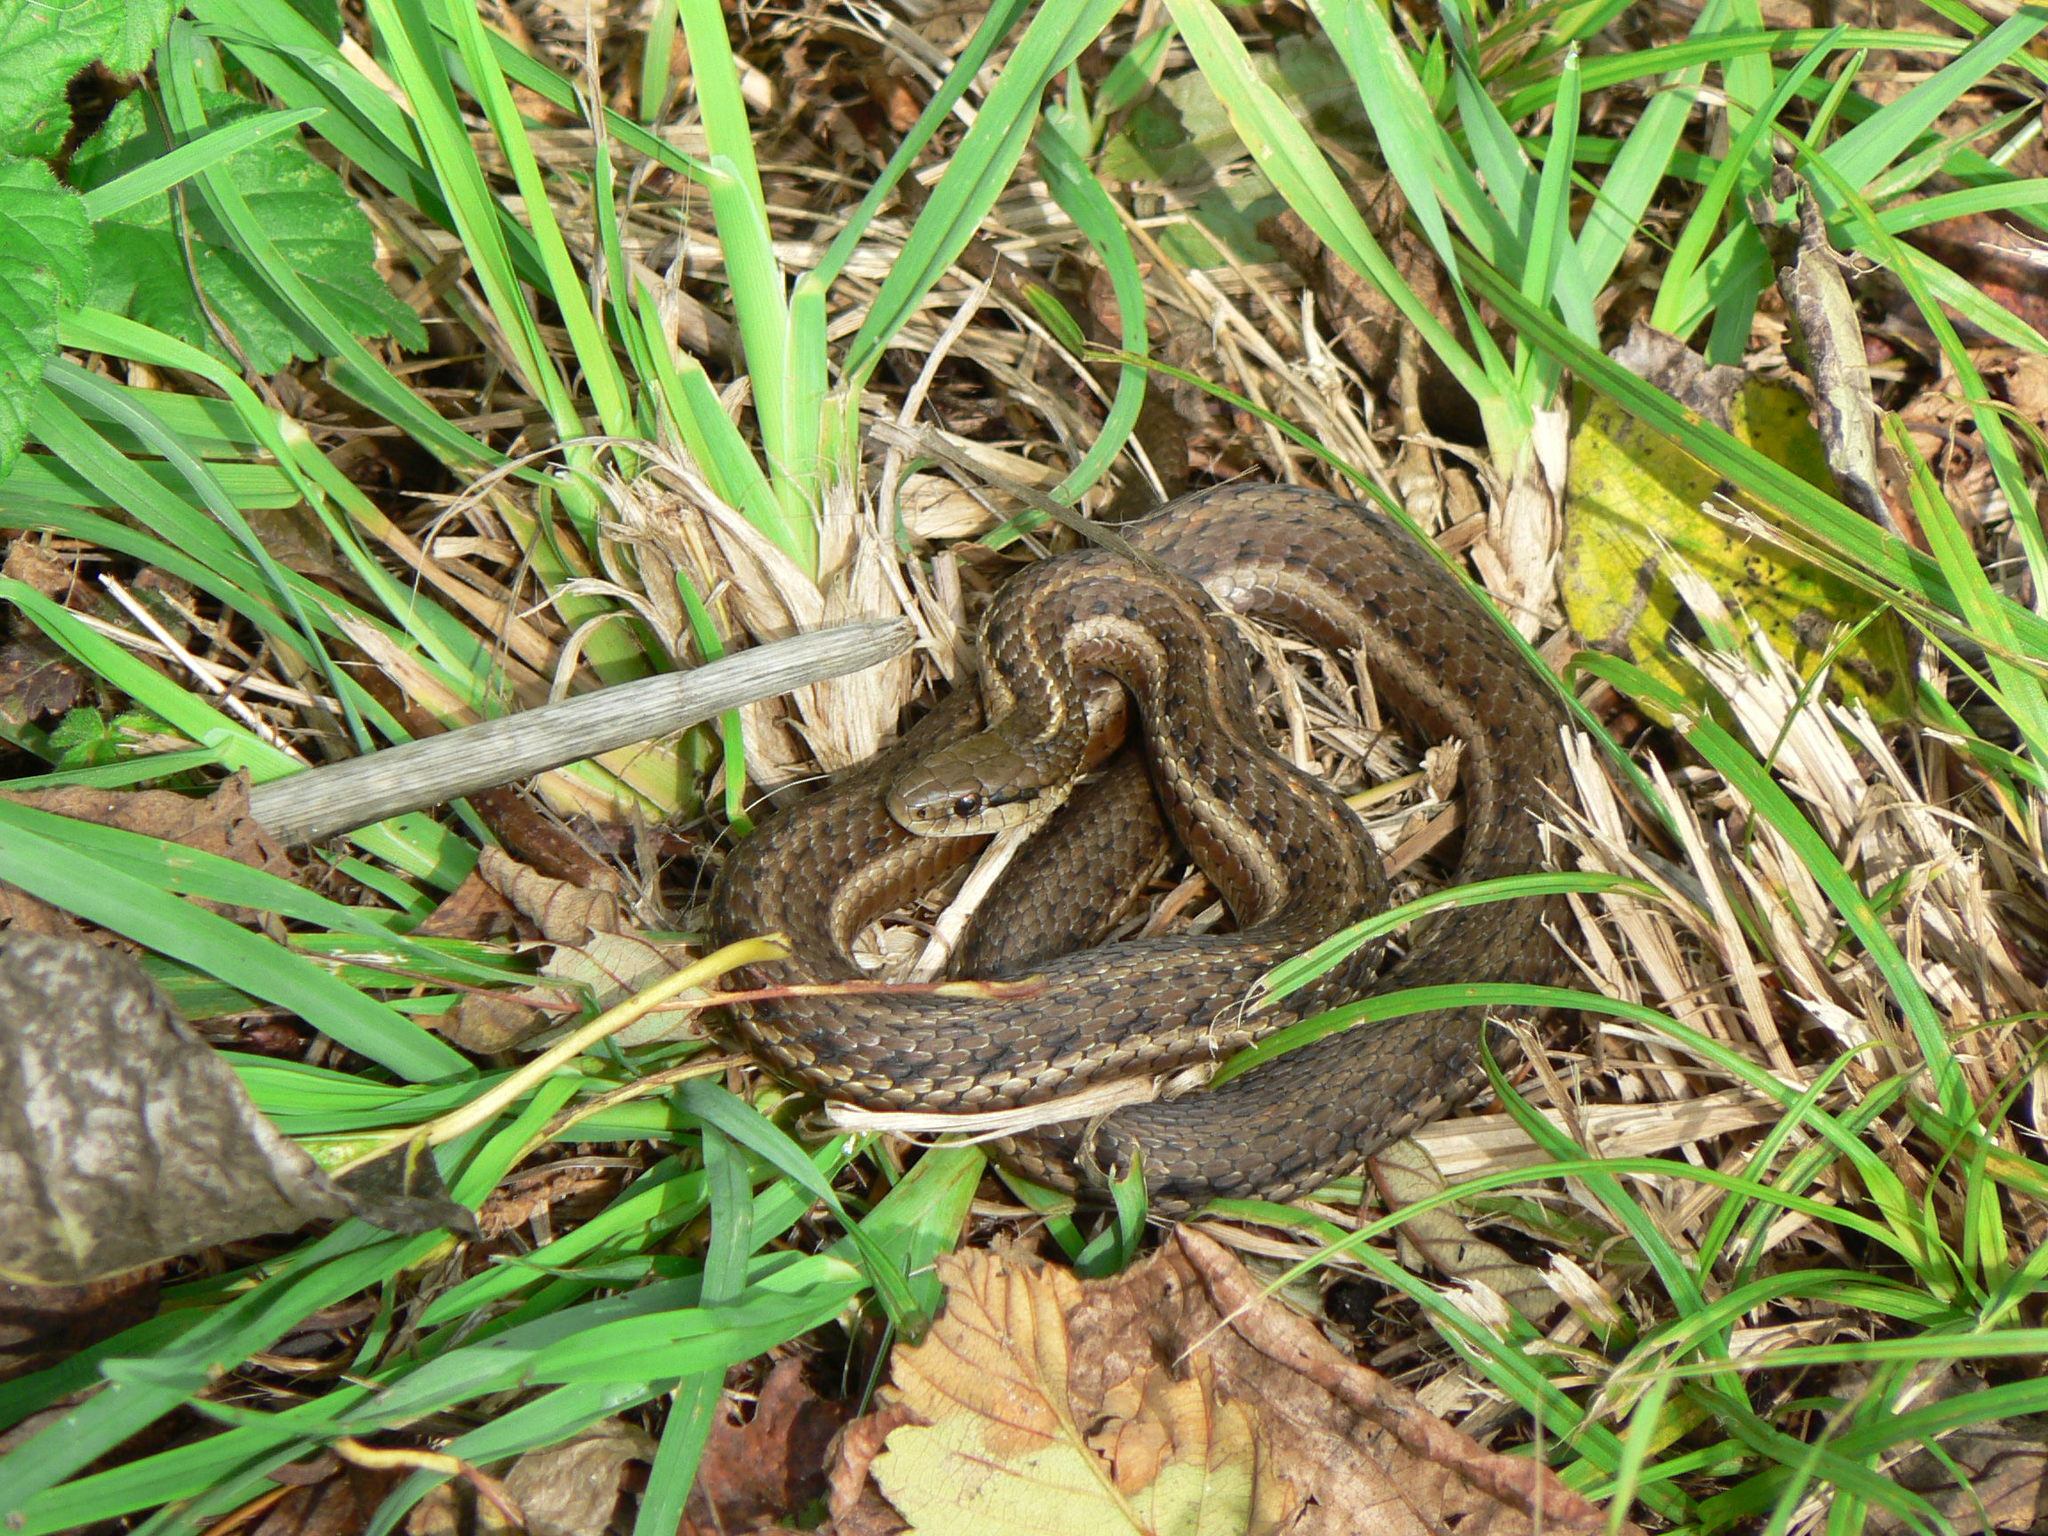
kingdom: Animalia
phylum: Chordata
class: Squamata
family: Colubridae
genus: Thamnophis
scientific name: Thamnophis ordinoides
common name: Northwestern garter snake
